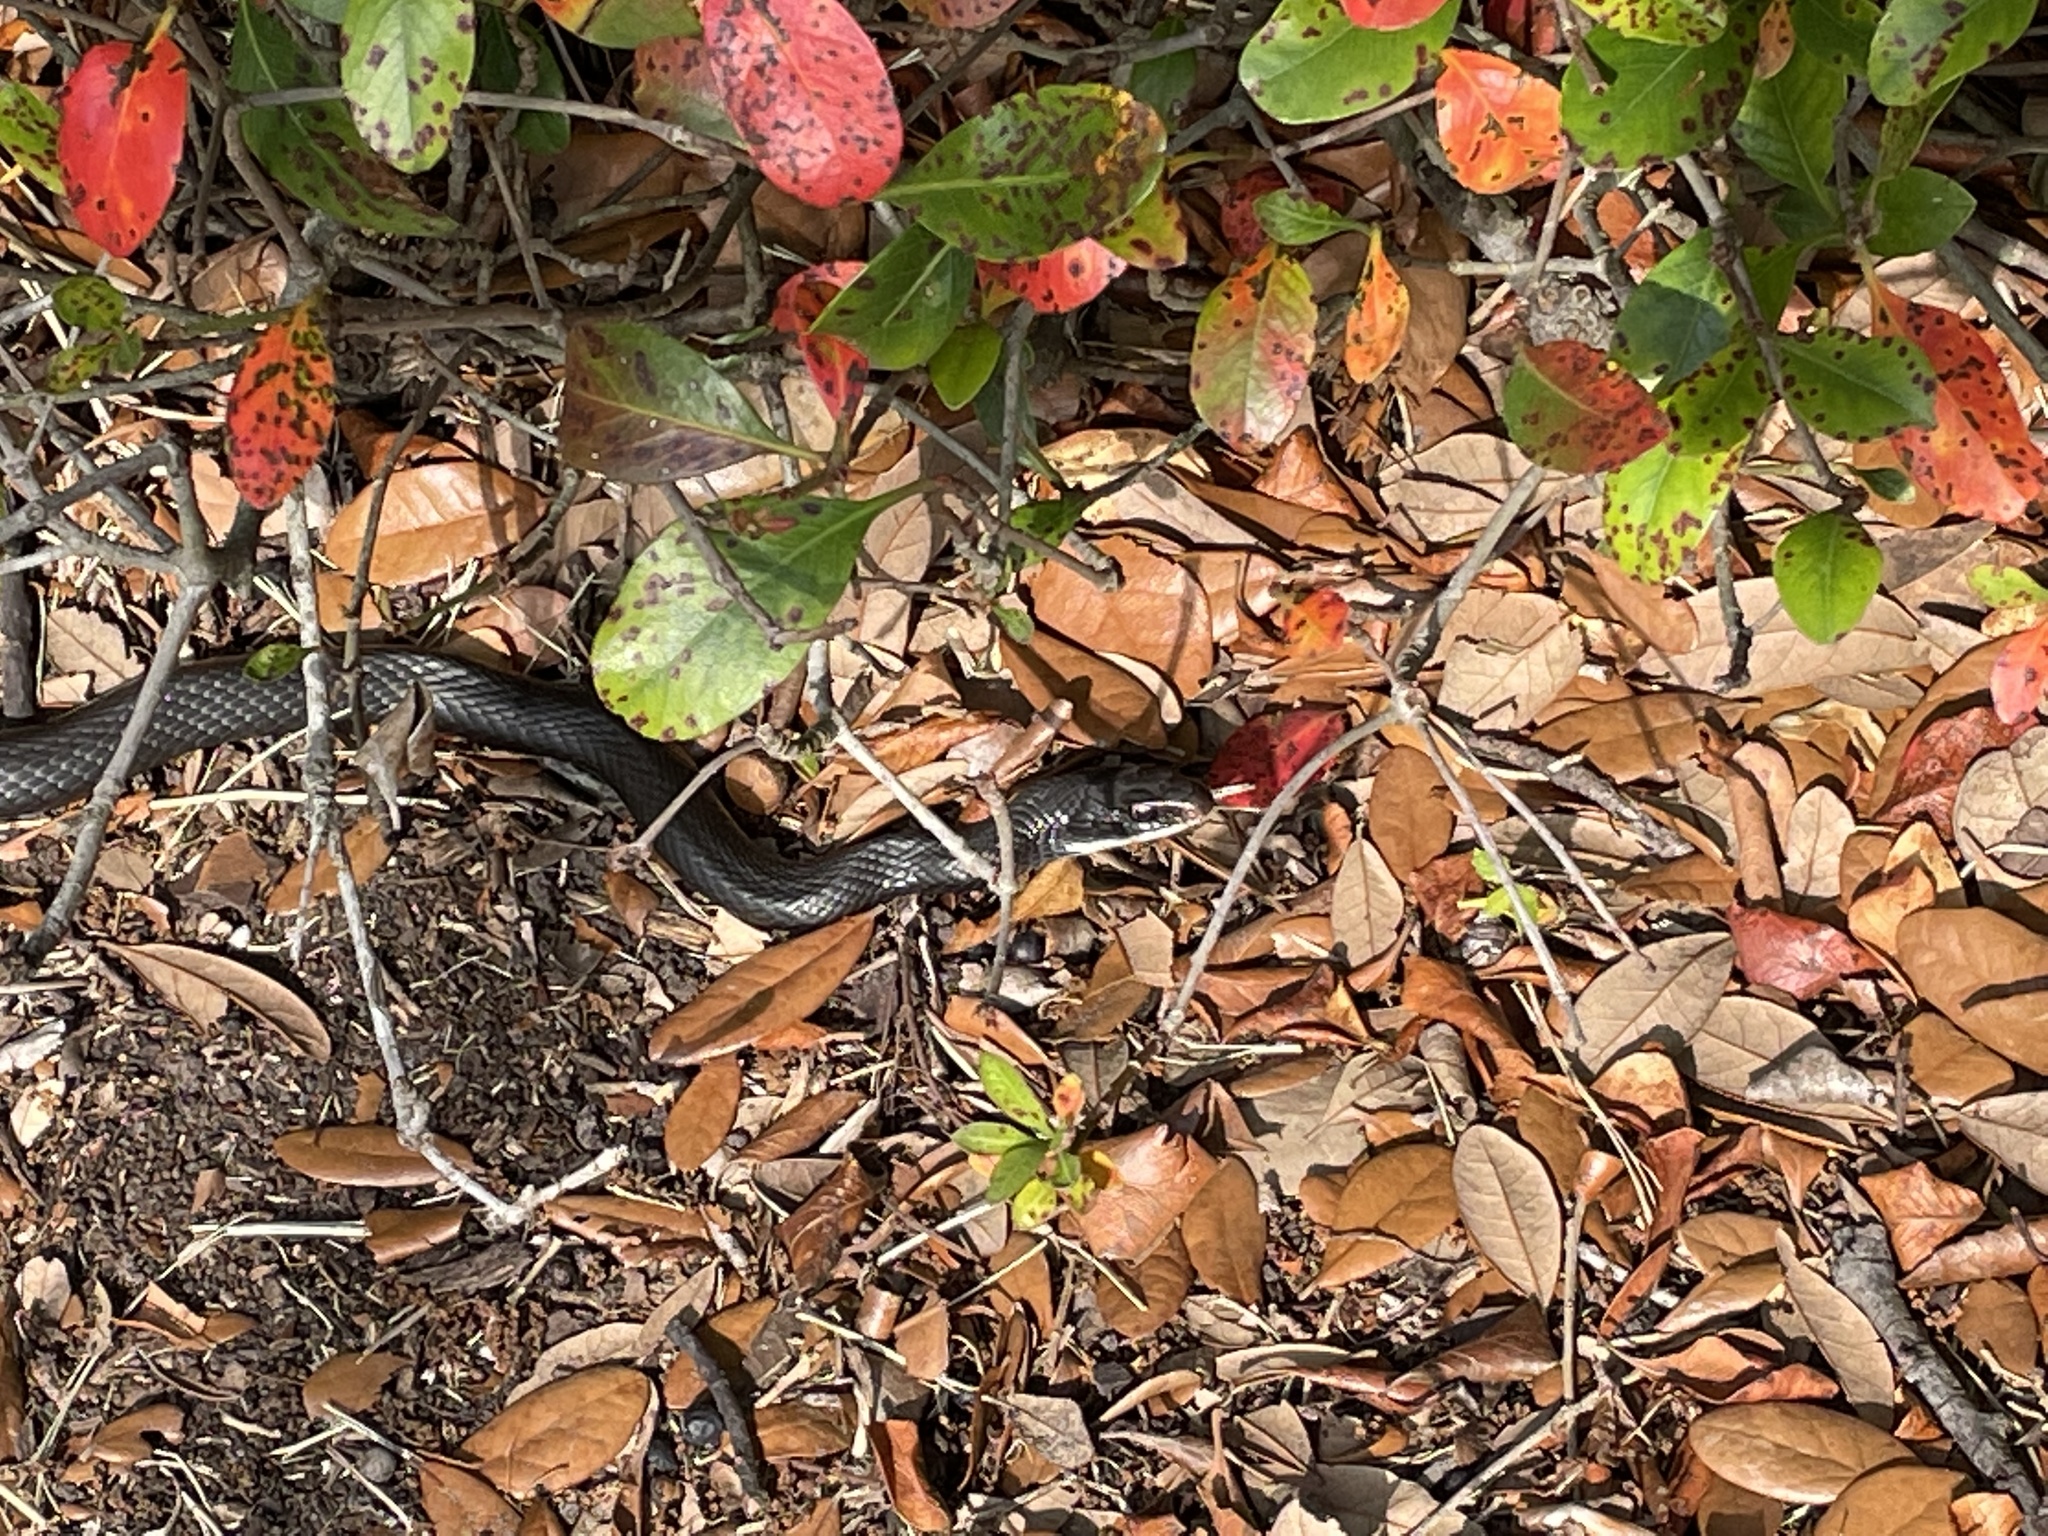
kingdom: Animalia
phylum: Chordata
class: Squamata
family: Colubridae
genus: Coluber
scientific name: Coluber constrictor
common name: Eastern racer
